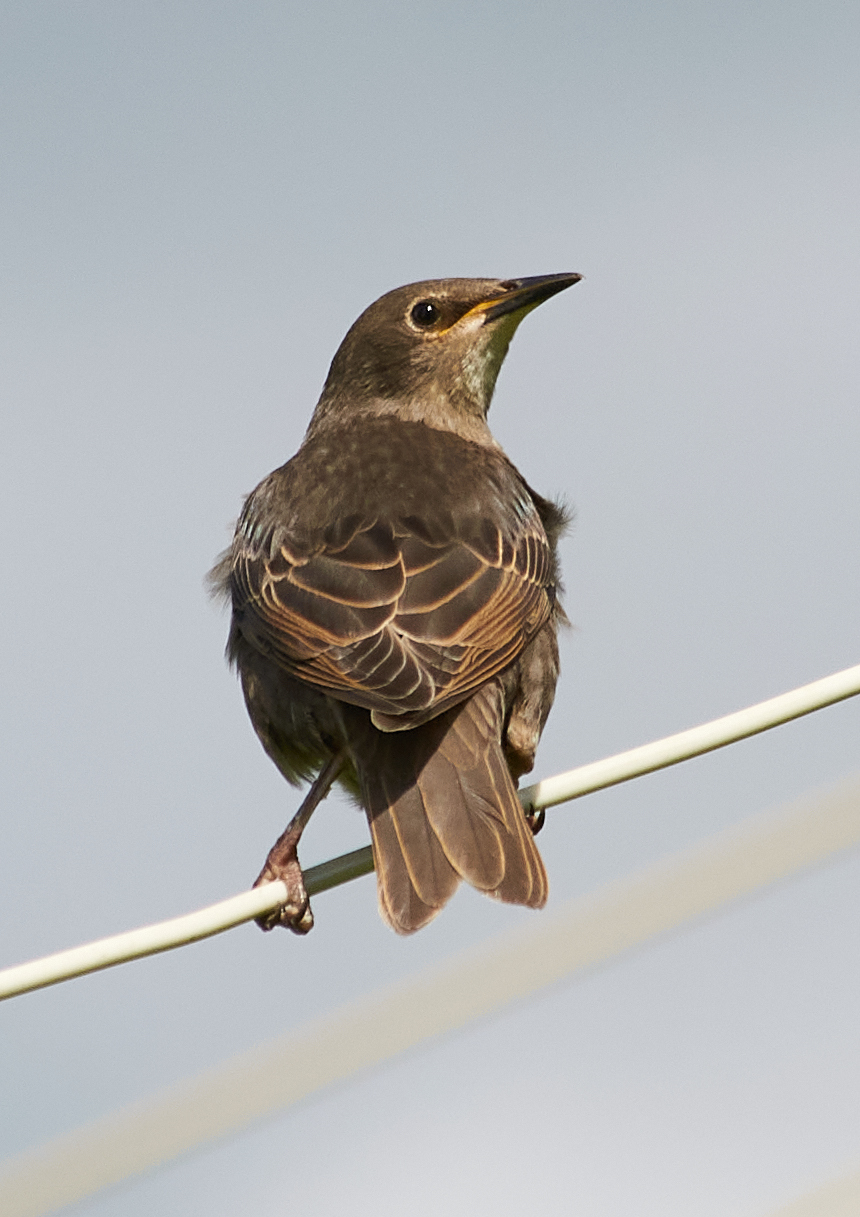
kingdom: Animalia
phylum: Chordata
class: Aves
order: Passeriformes
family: Sturnidae
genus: Sturnus
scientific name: Sturnus vulgaris
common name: Common starling
